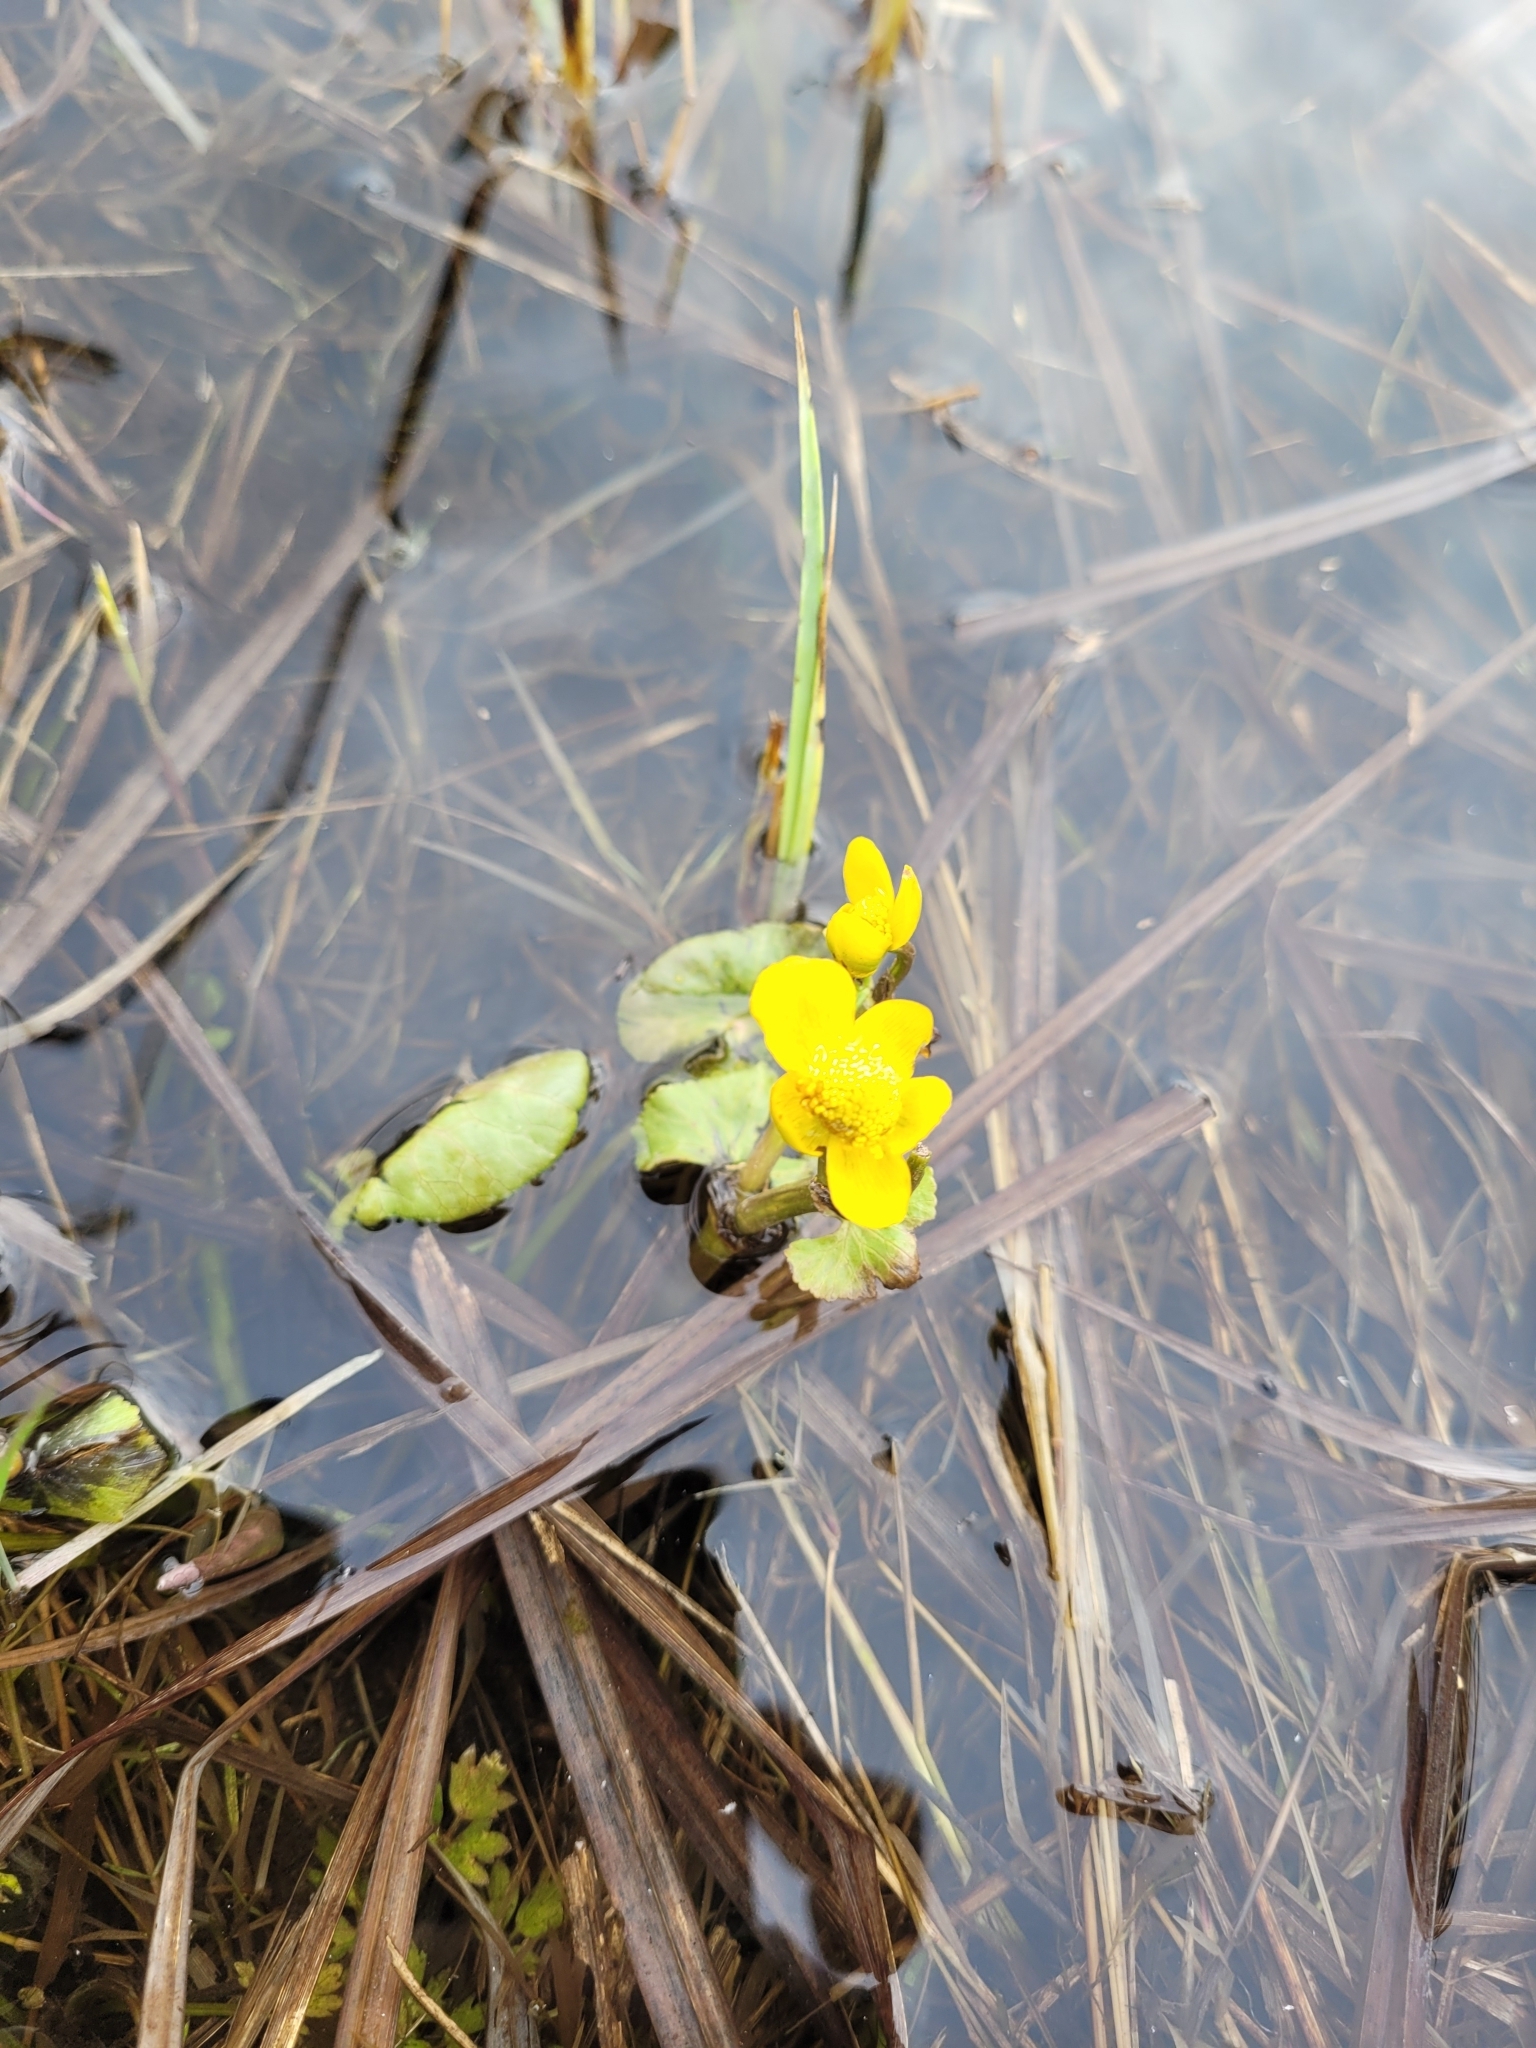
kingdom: Plantae
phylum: Tracheophyta
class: Magnoliopsida
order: Ranunculales
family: Ranunculaceae
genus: Caltha
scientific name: Caltha palustris
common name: Marsh marigold
